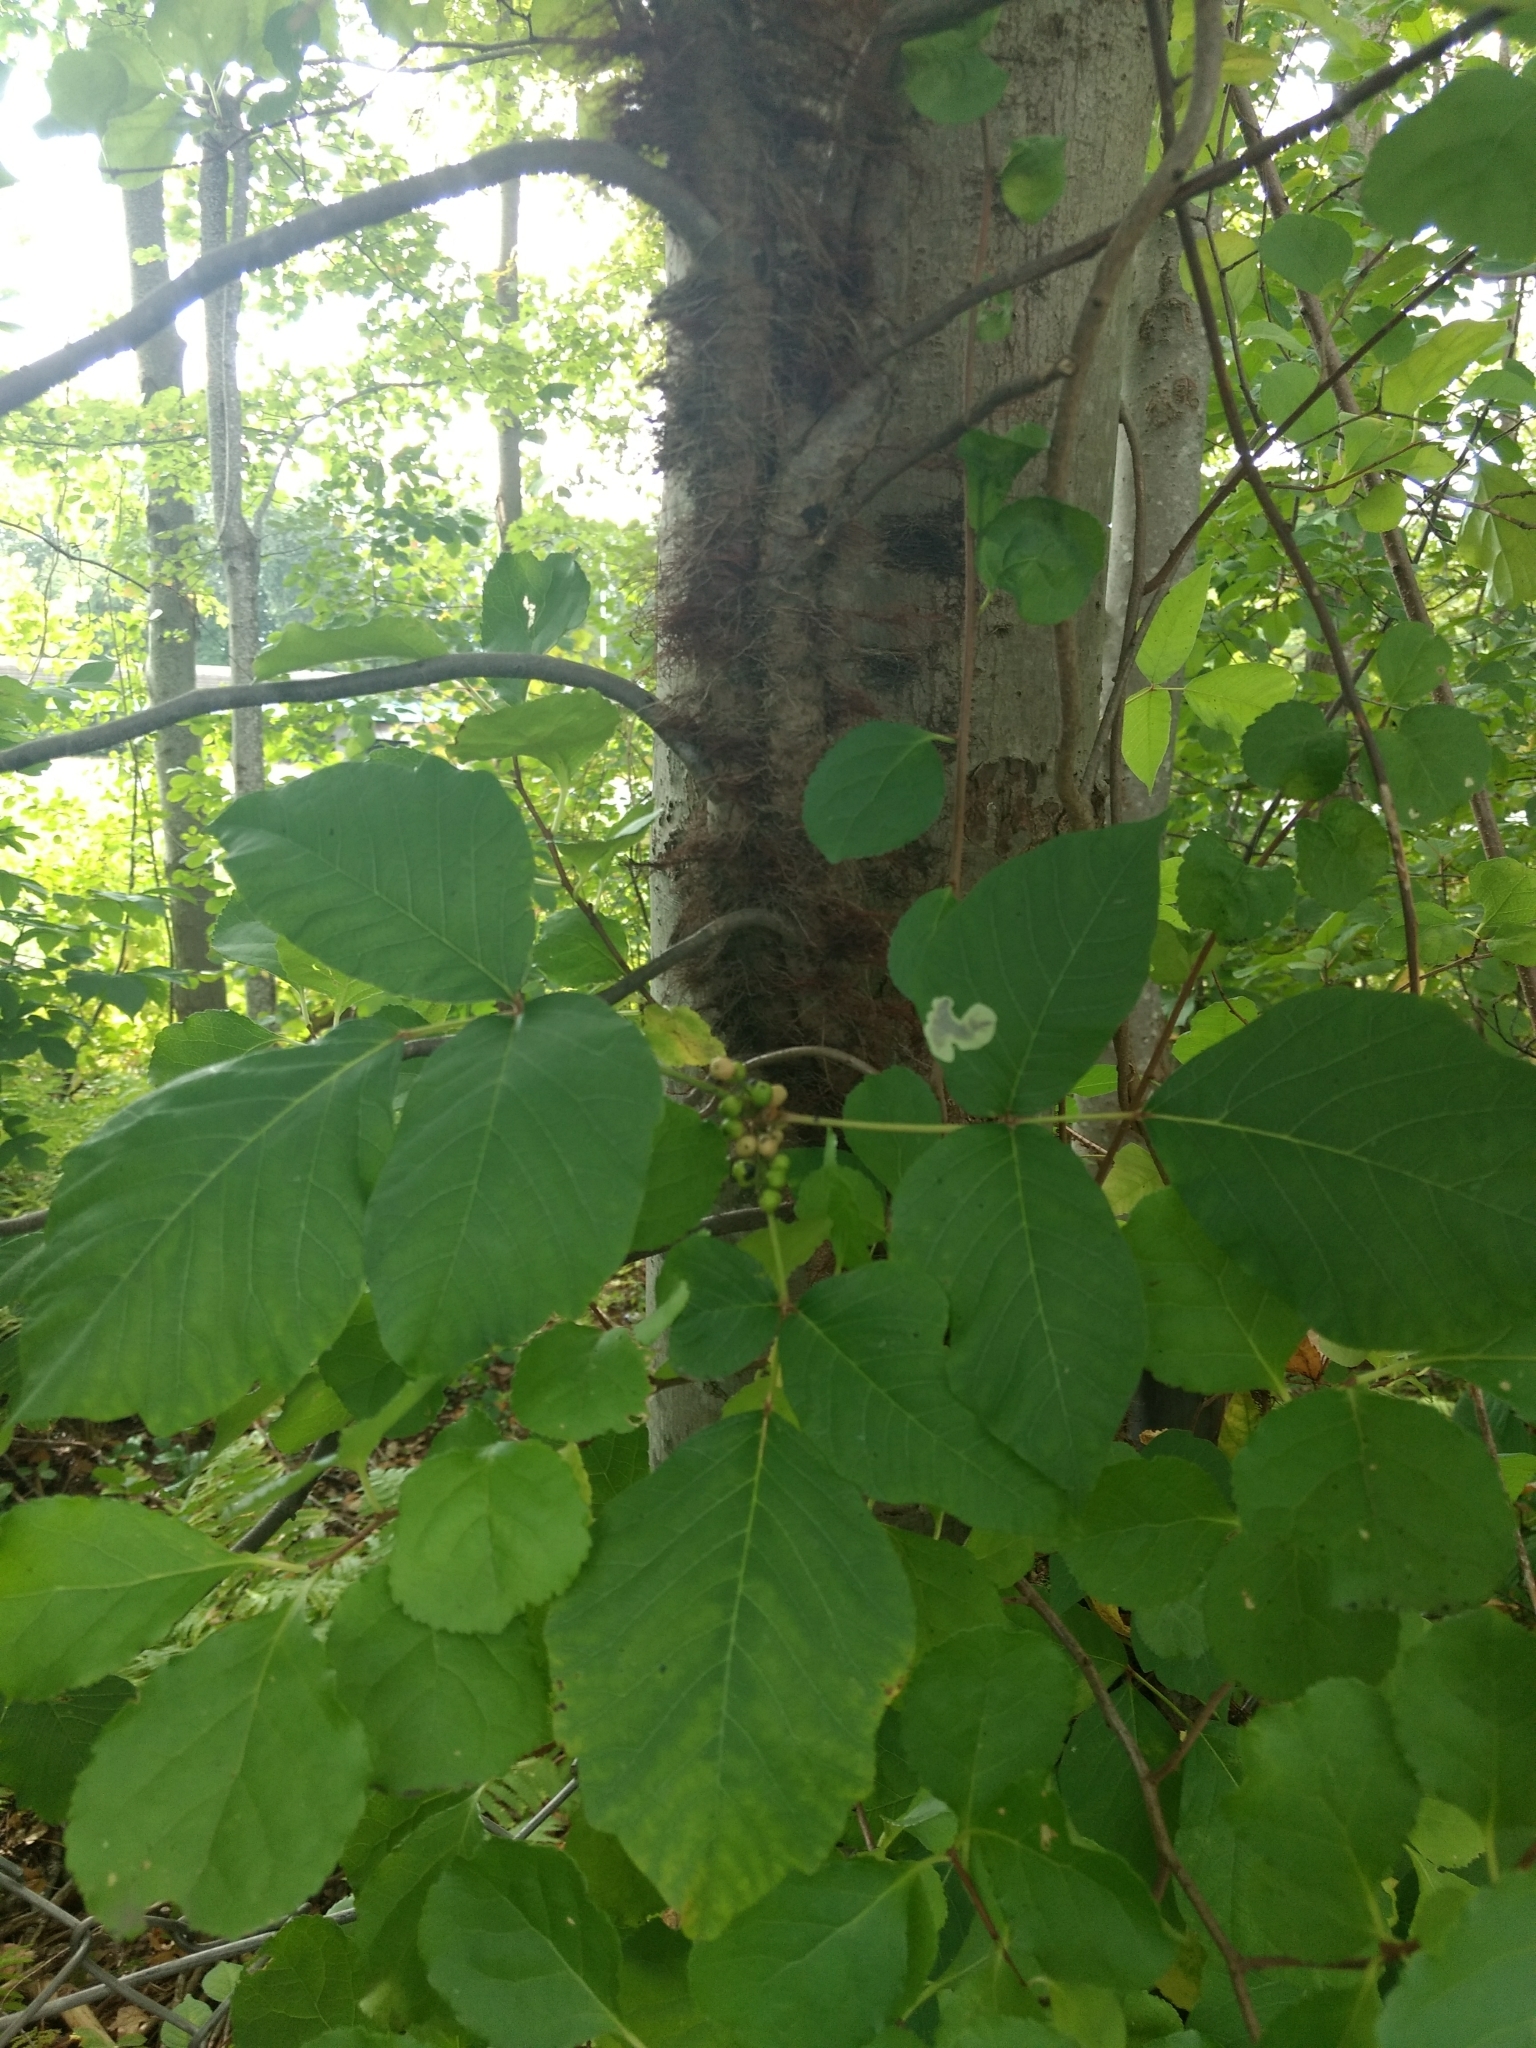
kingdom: Plantae
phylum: Tracheophyta
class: Magnoliopsida
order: Sapindales
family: Anacardiaceae
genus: Toxicodendron
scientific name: Toxicodendron radicans
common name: Poison ivy
